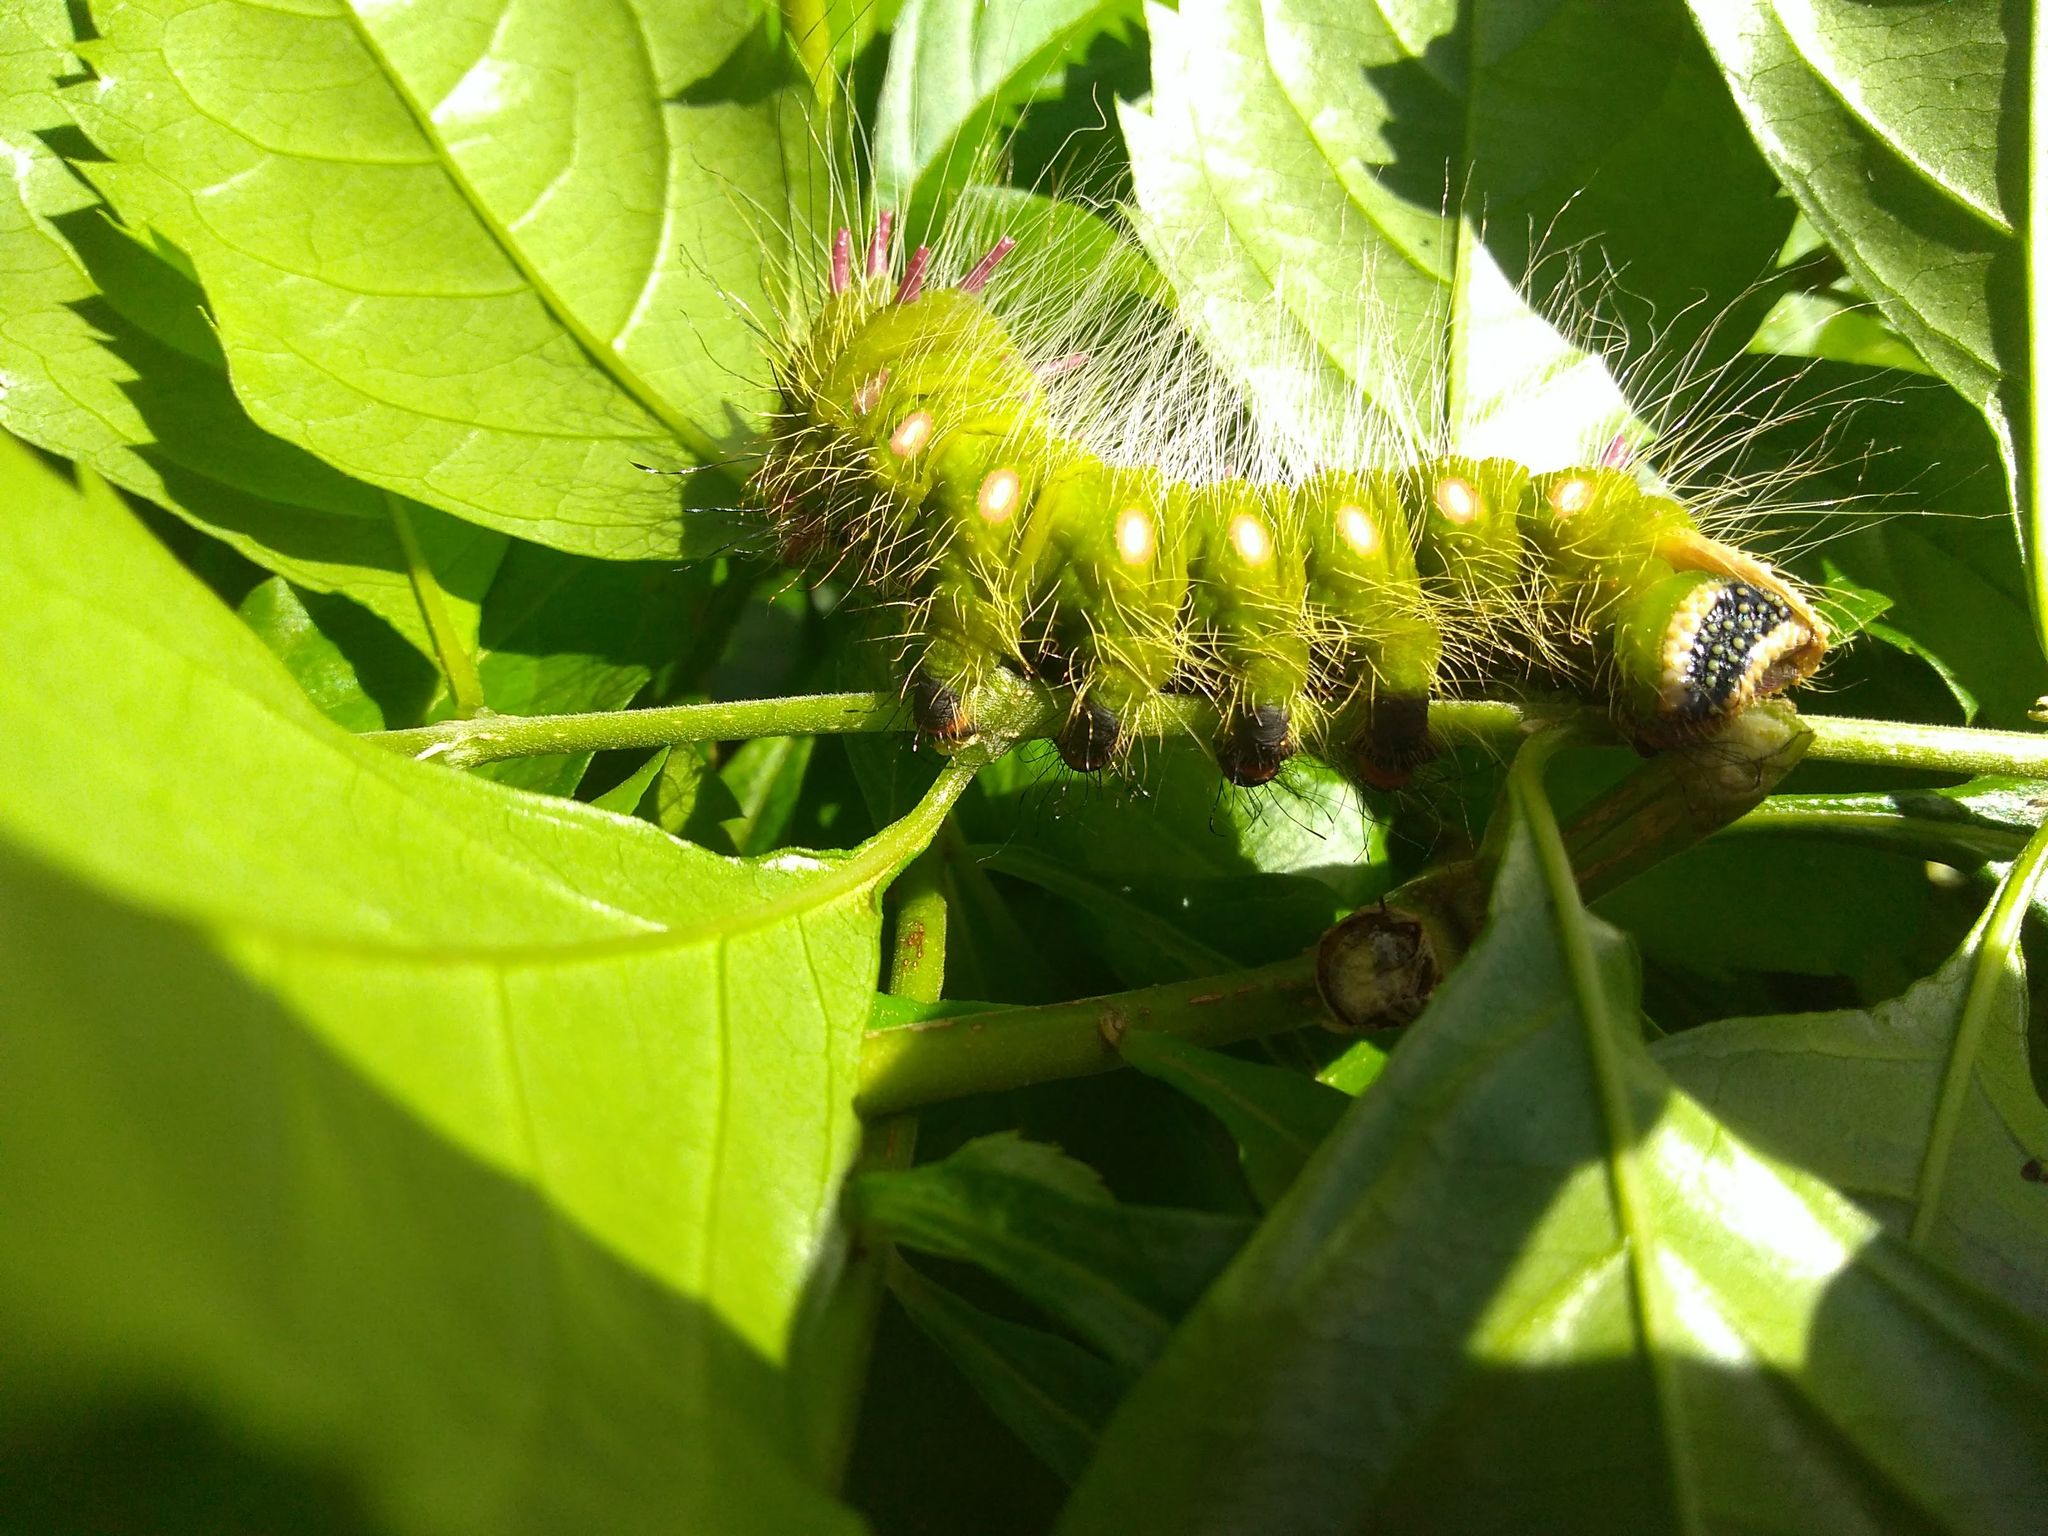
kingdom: Animalia
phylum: Arthropoda
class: Insecta
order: Lepidoptera
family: Saturniidae
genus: Eacles
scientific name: Eacles imperialis
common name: Imperial moth
